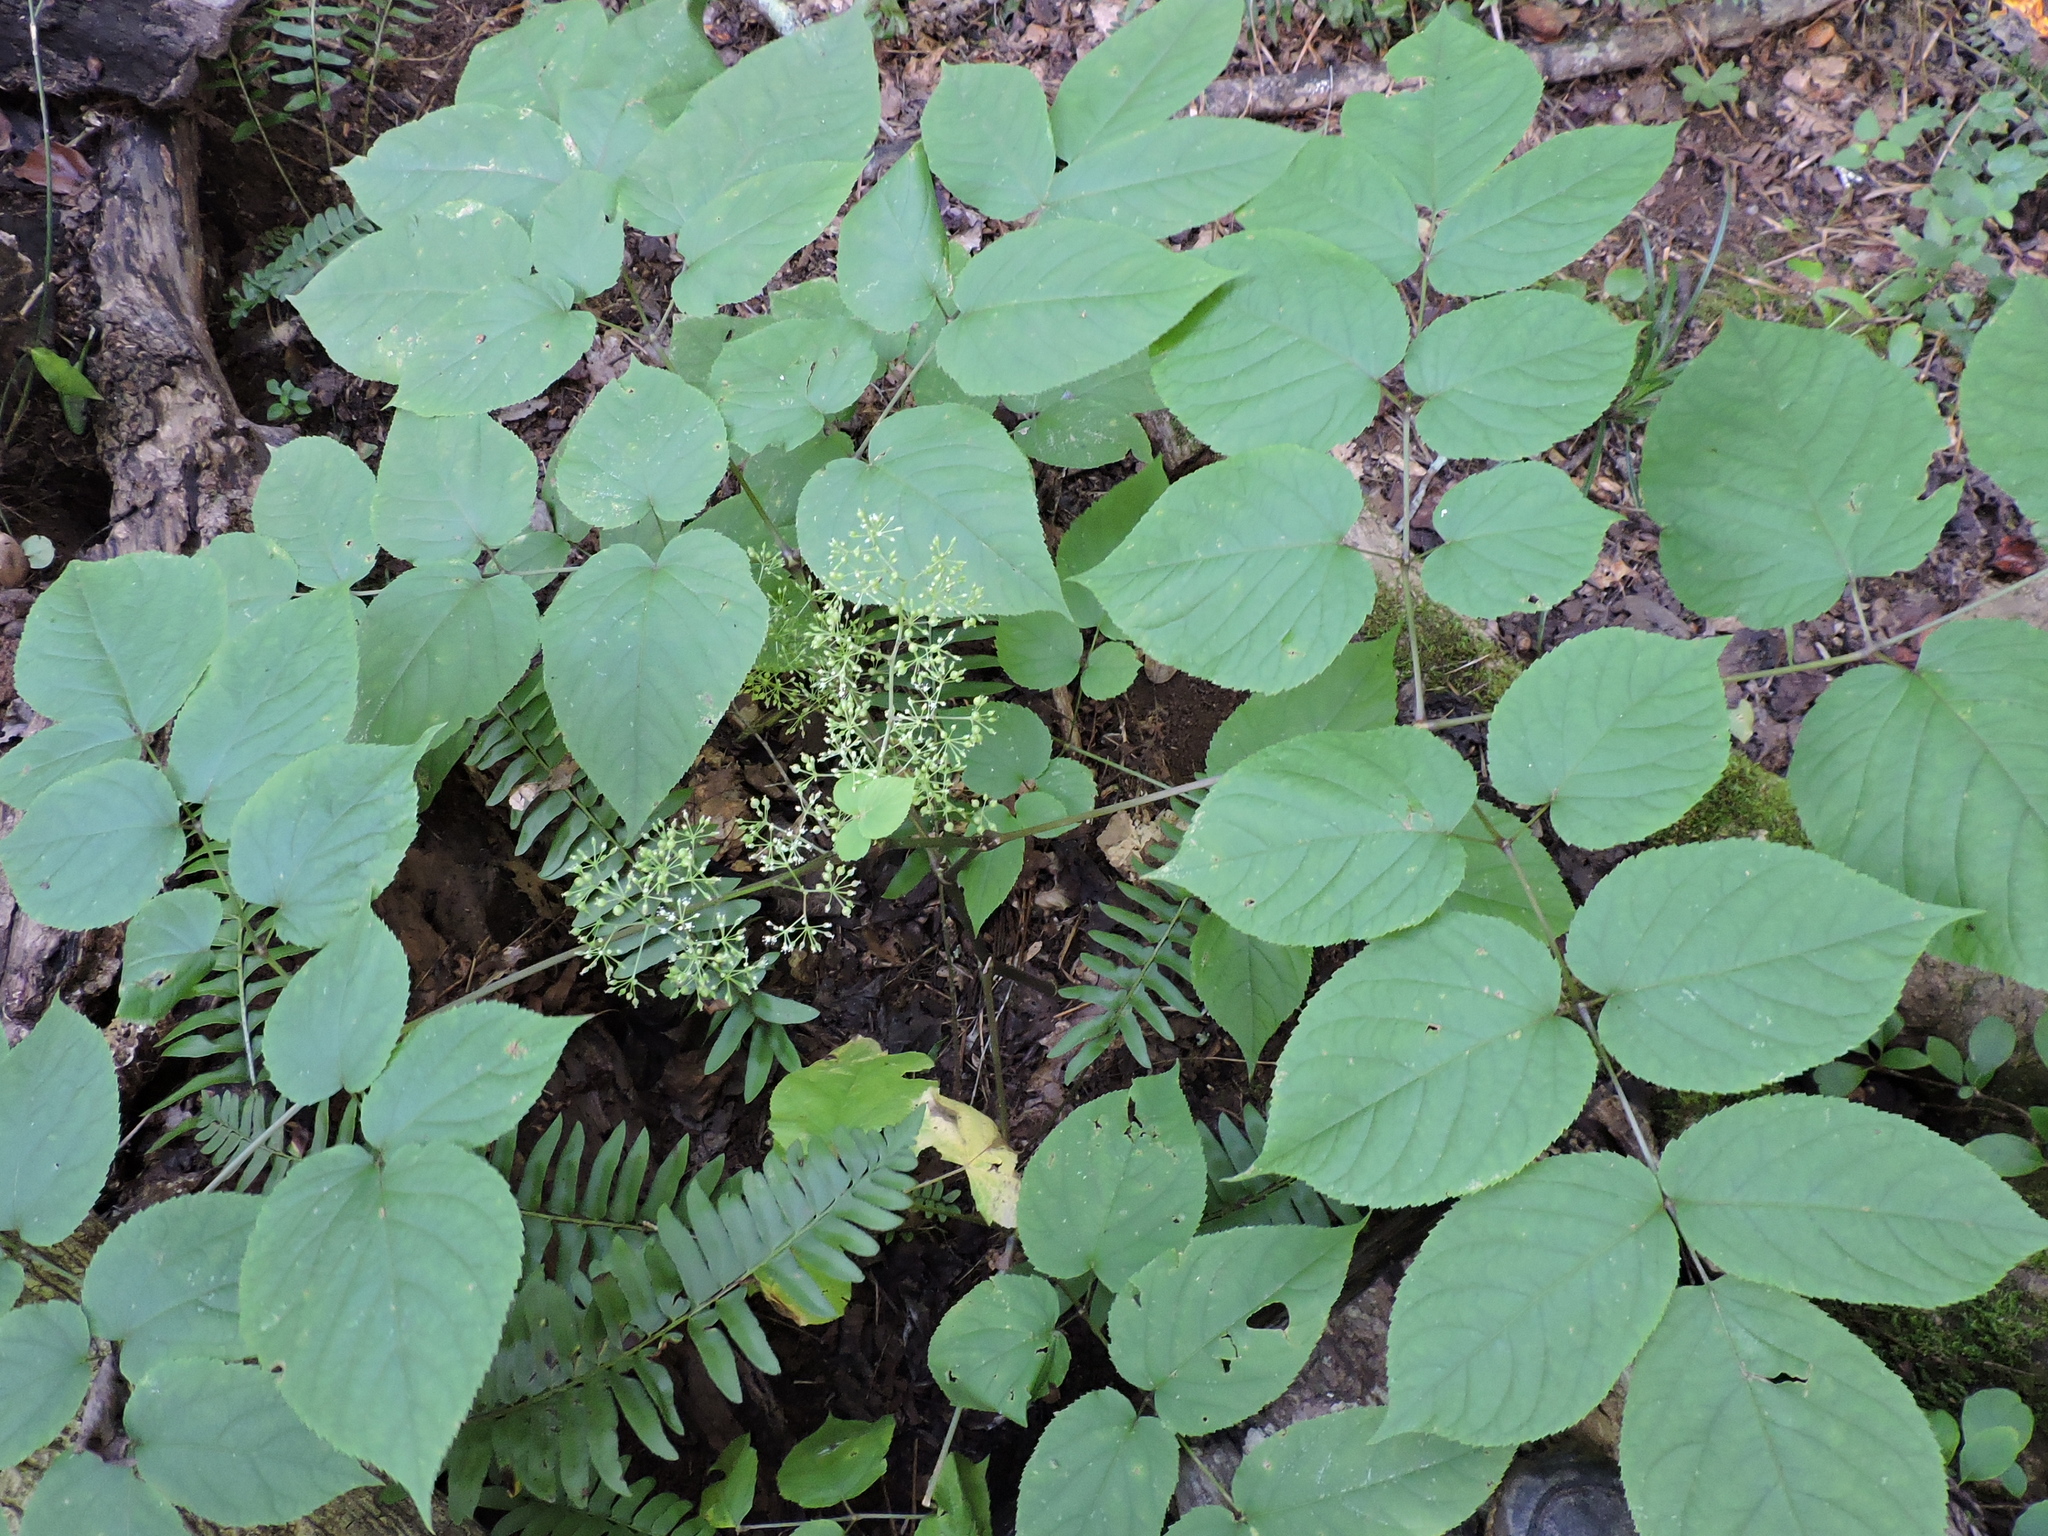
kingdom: Plantae
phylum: Tracheophyta
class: Magnoliopsida
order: Apiales
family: Araliaceae
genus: Aralia
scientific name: Aralia racemosa
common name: American-spikenard
